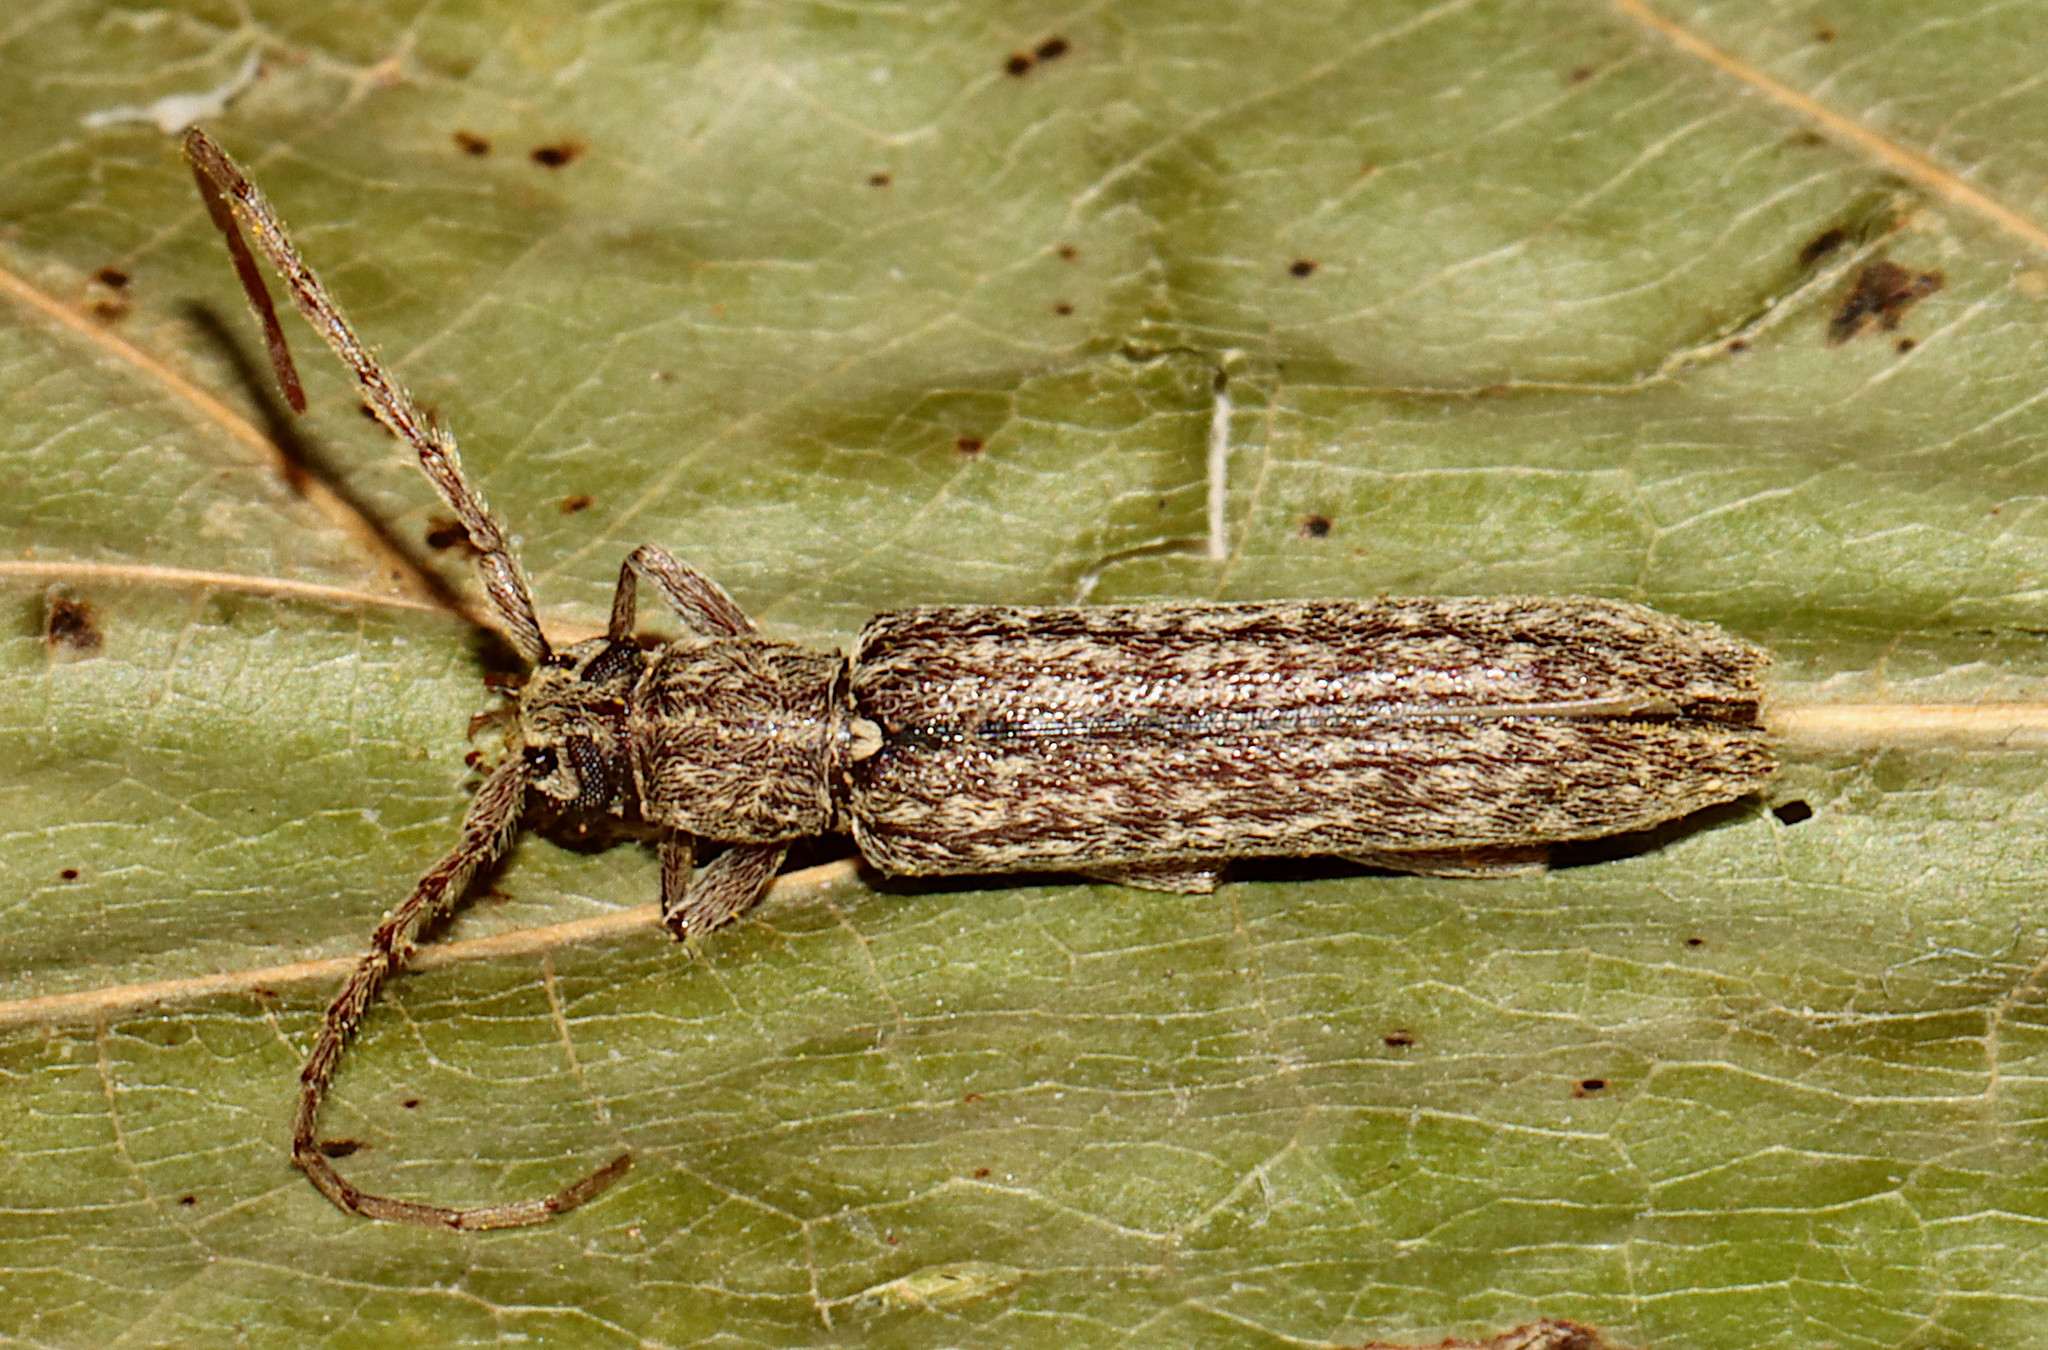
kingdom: Animalia
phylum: Arthropoda
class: Insecta
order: Coleoptera
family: Cerambycidae
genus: Anelaphus
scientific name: Anelaphus villosus
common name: Twig pruner
